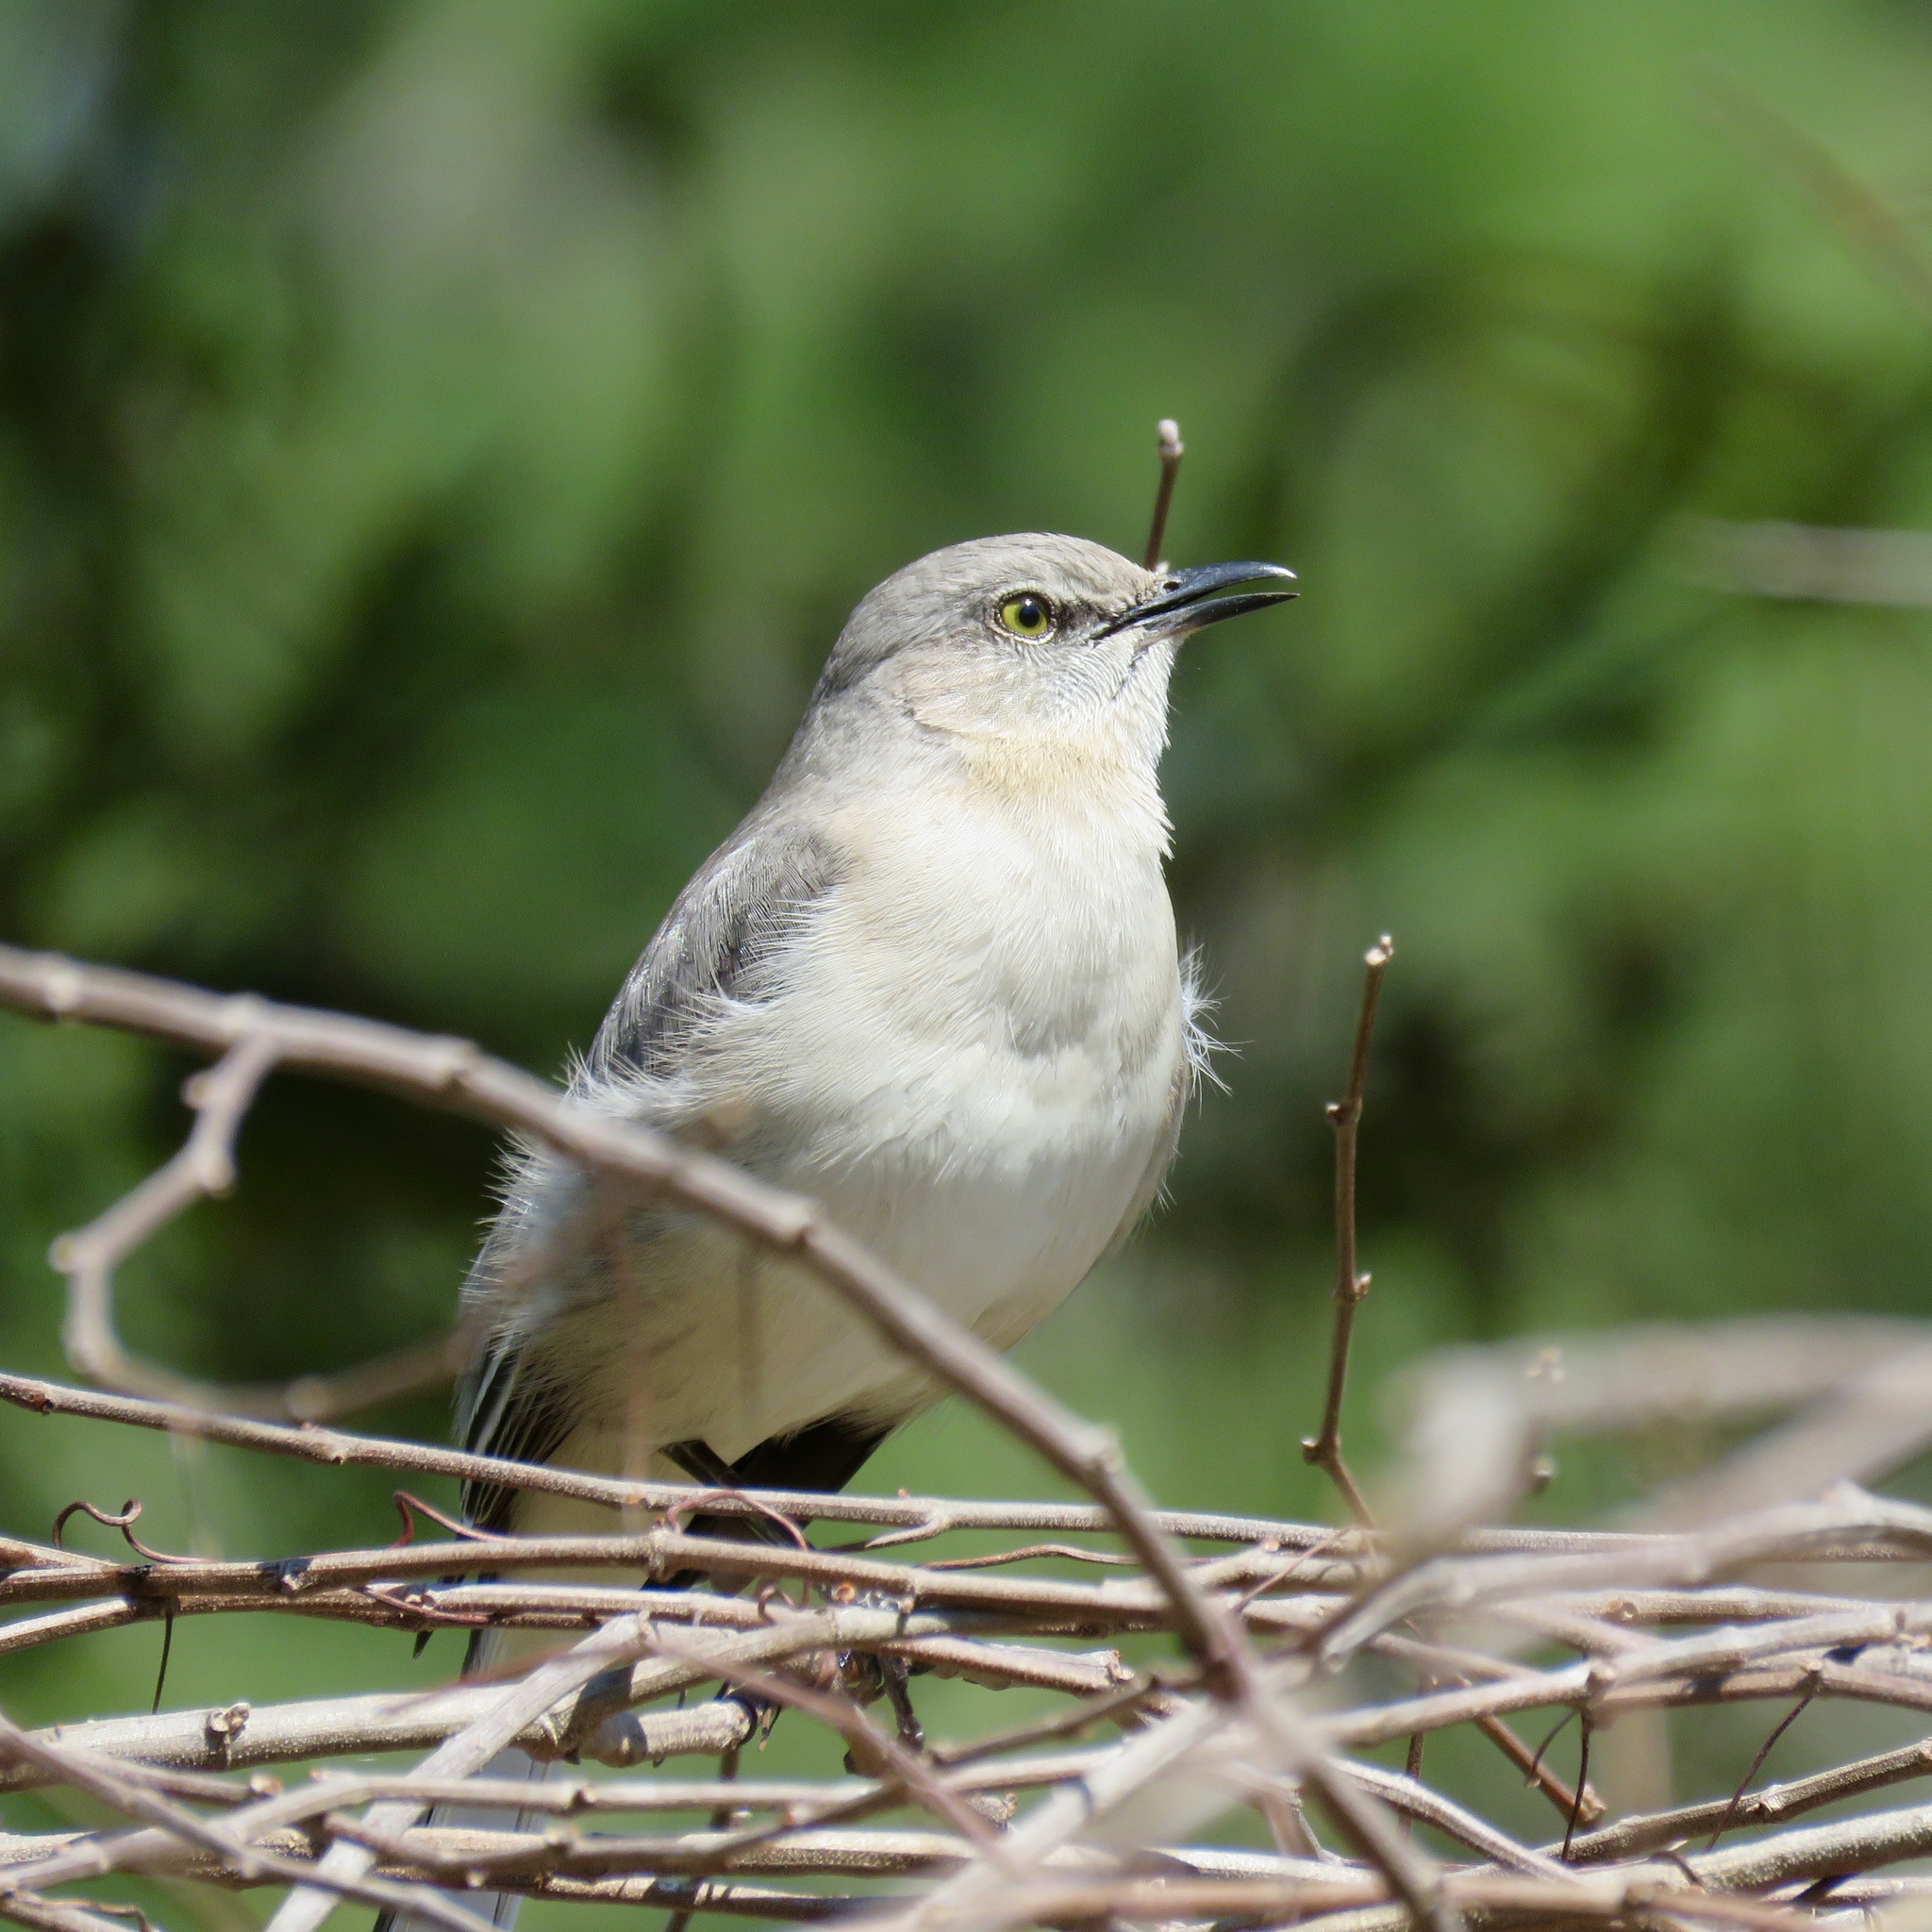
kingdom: Animalia
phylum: Chordata
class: Aves
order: Passeriformes
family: Mimidae
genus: Mimus
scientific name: Mimus polyglottos
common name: Northern mockingbird
